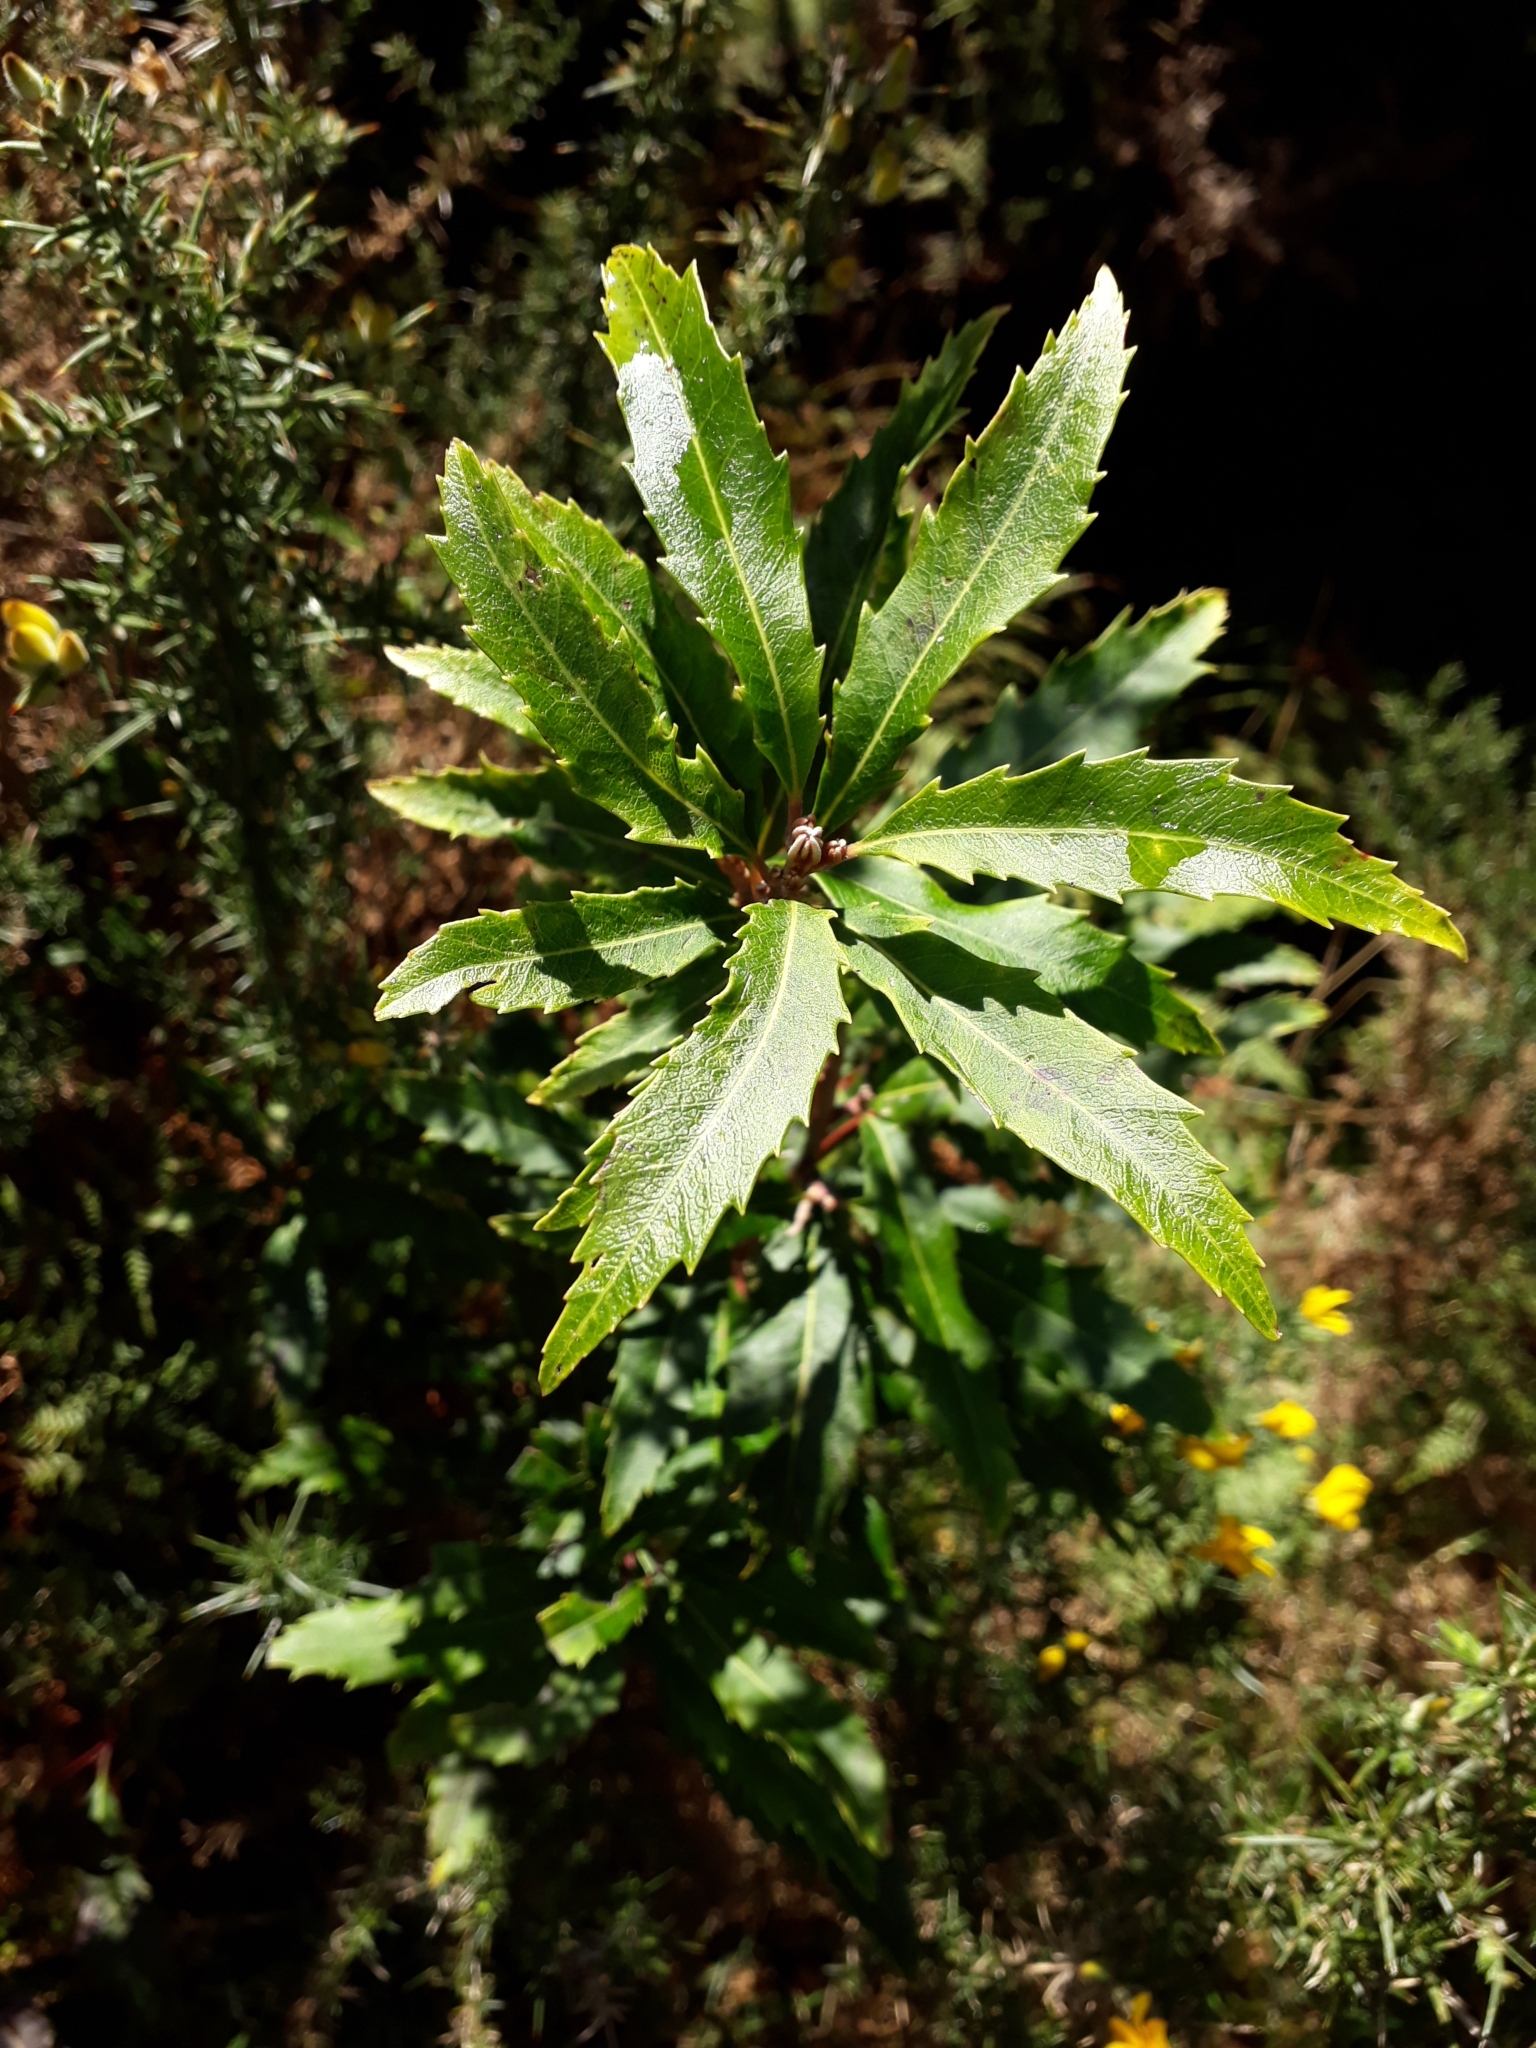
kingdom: Plantae
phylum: Tracheophyta
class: Magnoliopsida
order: Proteales
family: Proteaceae
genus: Lomatia
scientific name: Lomatia fraseri
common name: Forest lomatia
